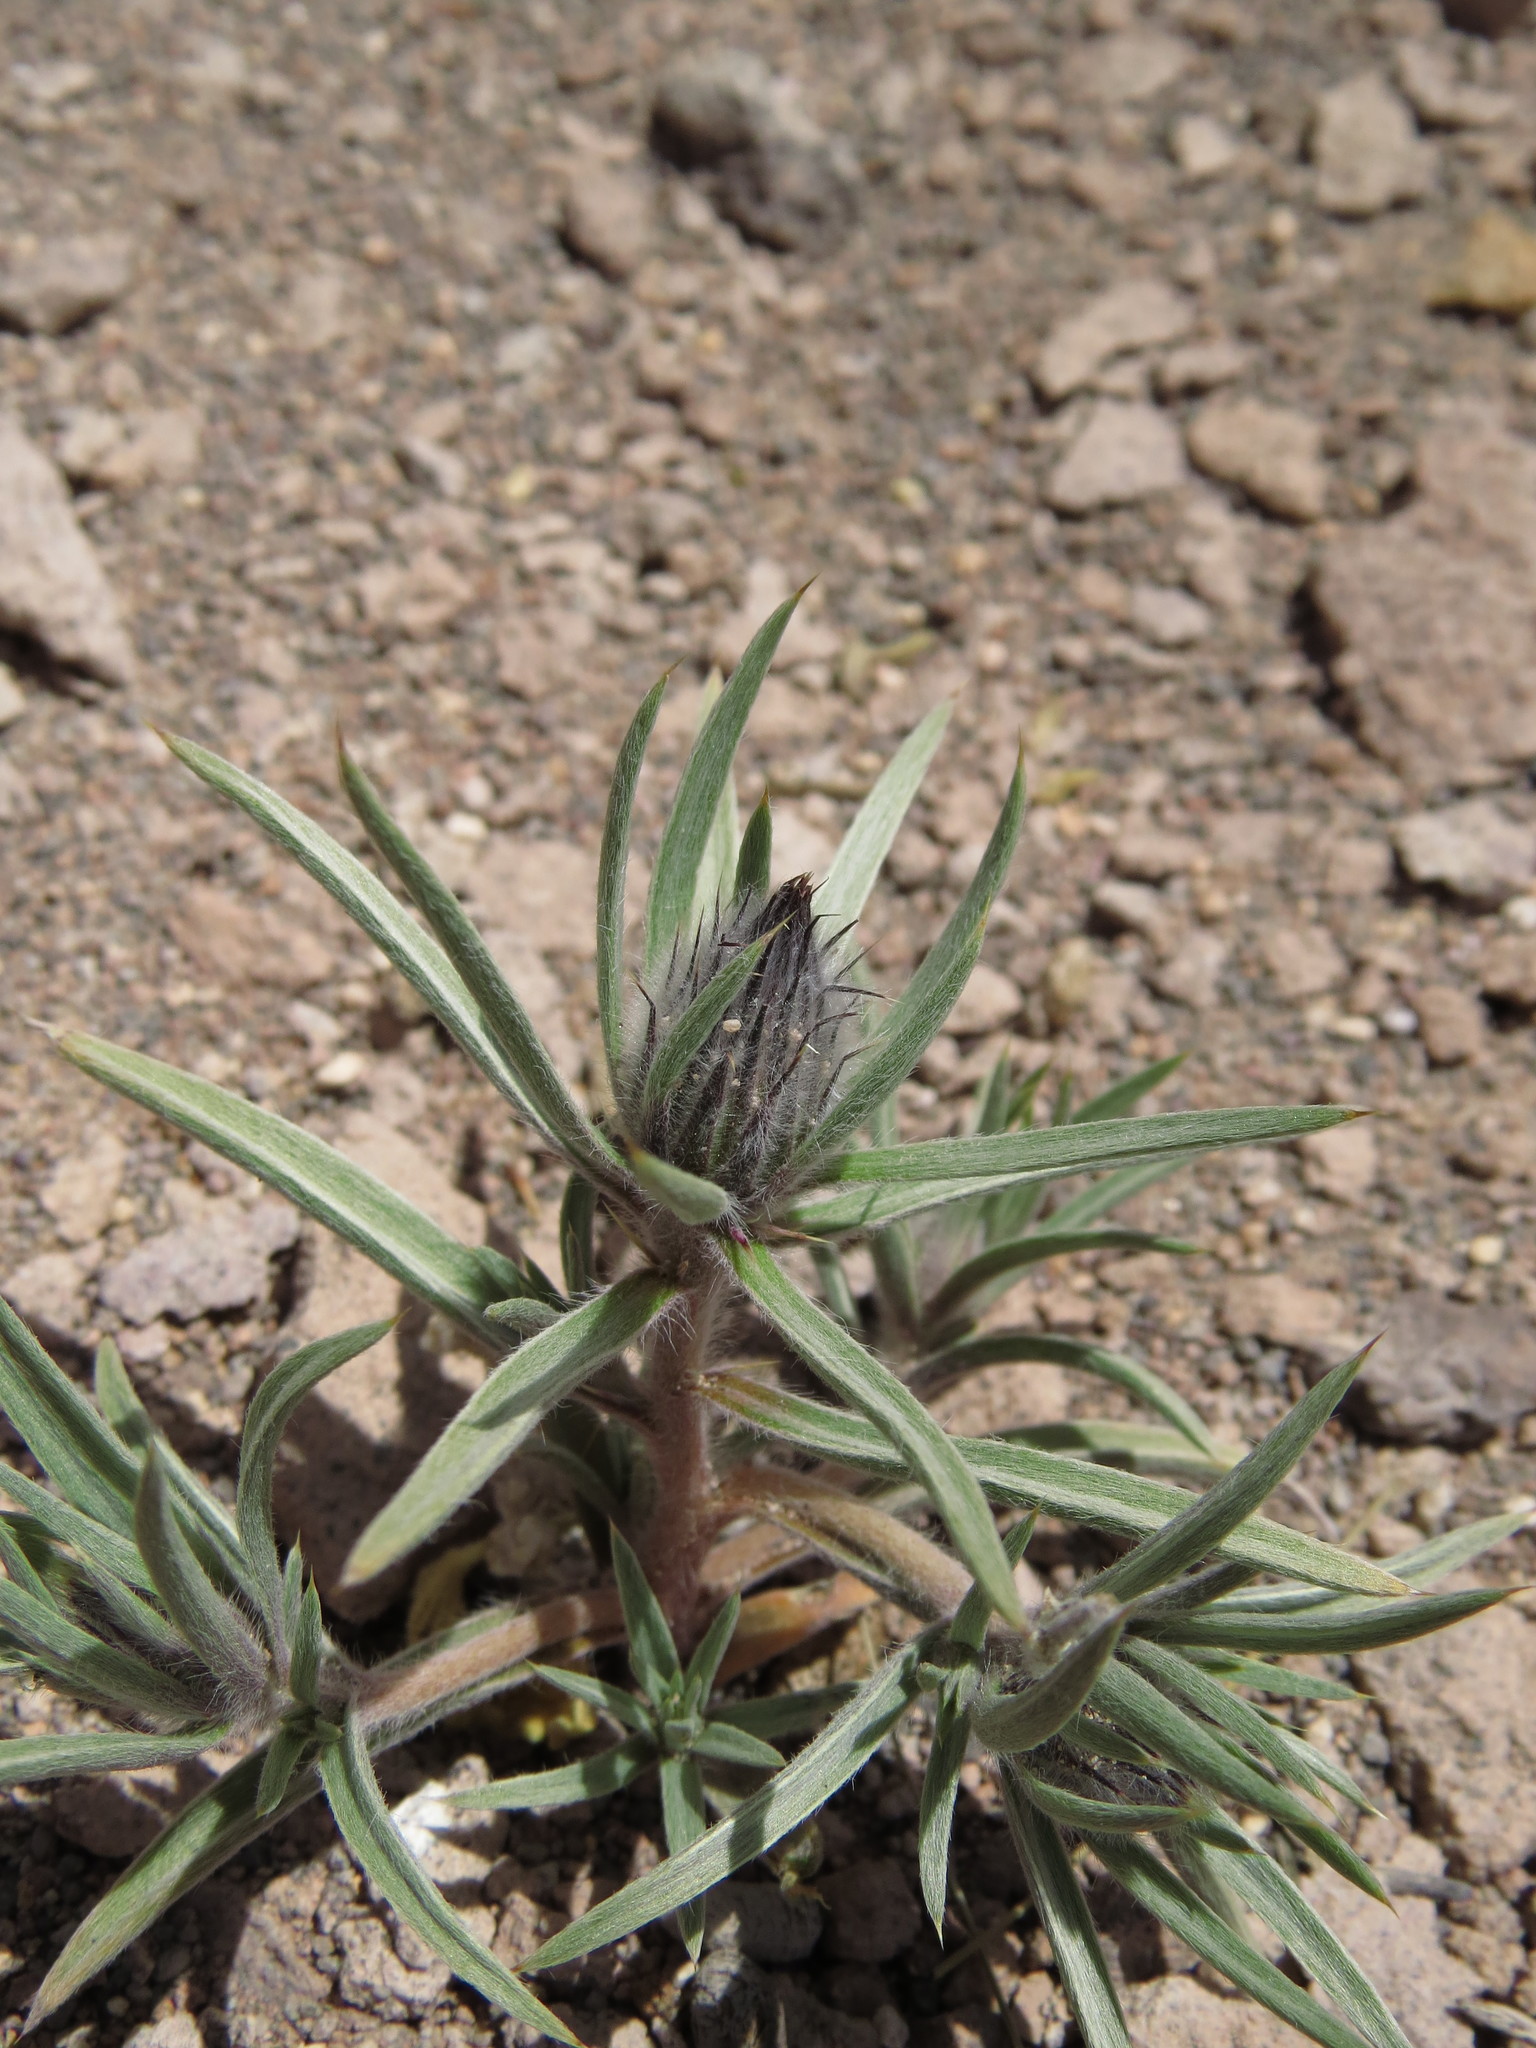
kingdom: Plantae
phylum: Tracheophyta
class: Magnoliopsida
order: Asterales
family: Asteraceae
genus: Doniophyton
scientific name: Doniophyton weddellii
